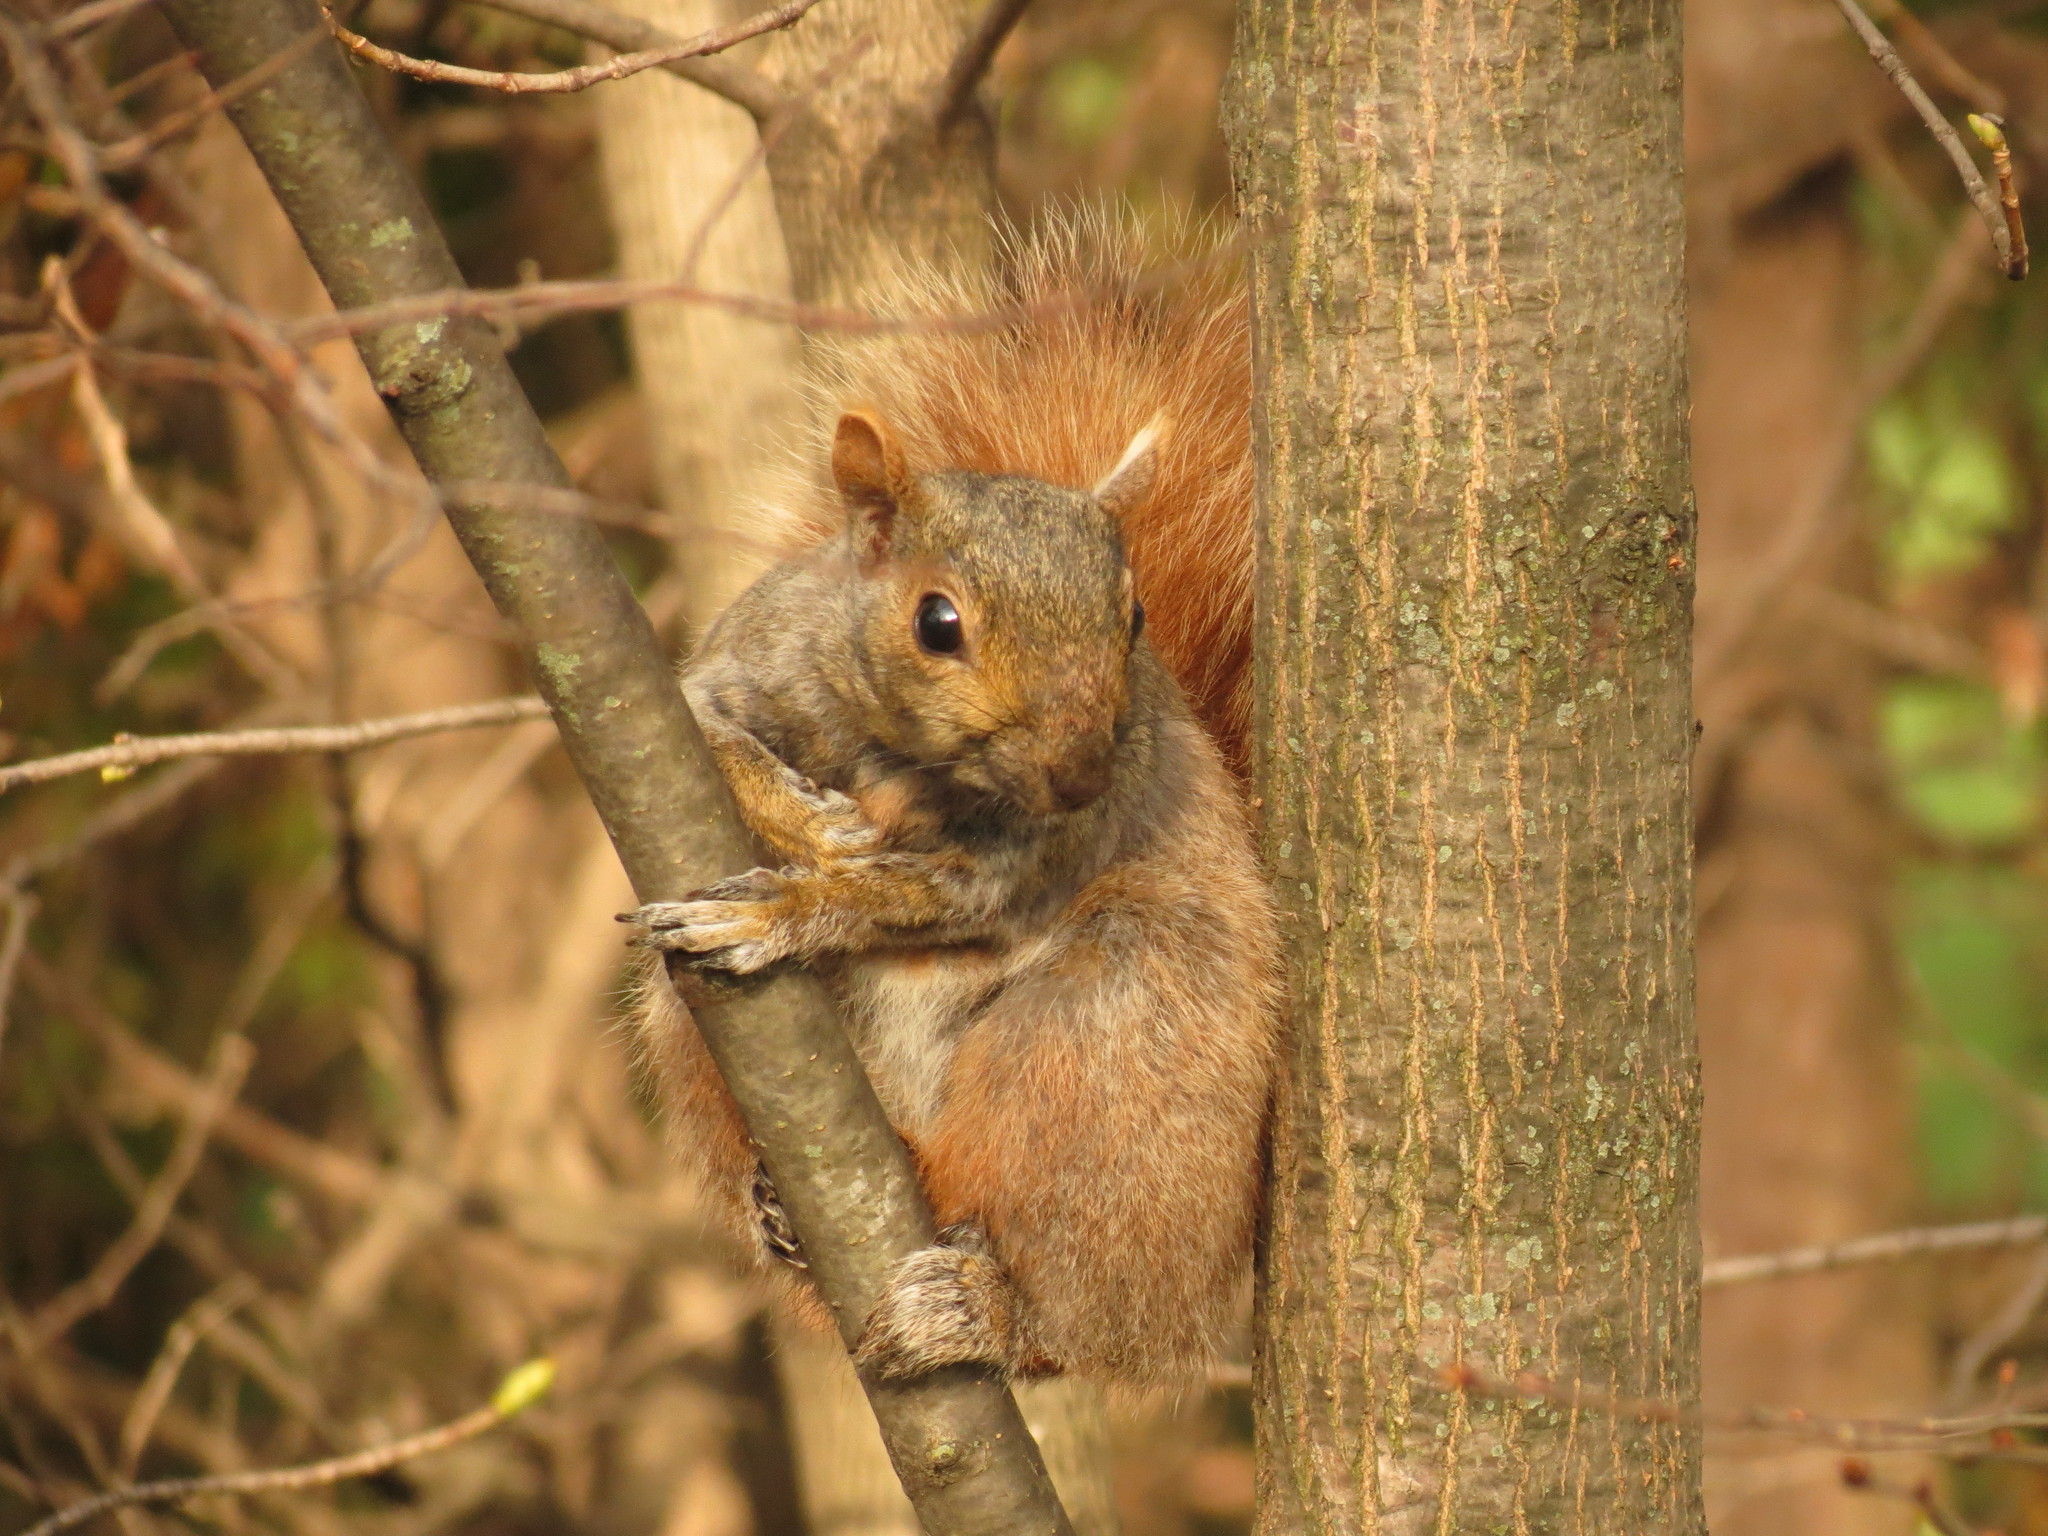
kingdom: Animalia
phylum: Chordata
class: Mammalia
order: Rodentia
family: Sciuridae
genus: Sciurus
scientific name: Sciurus carolinensis
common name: Eastern gray squirrel
